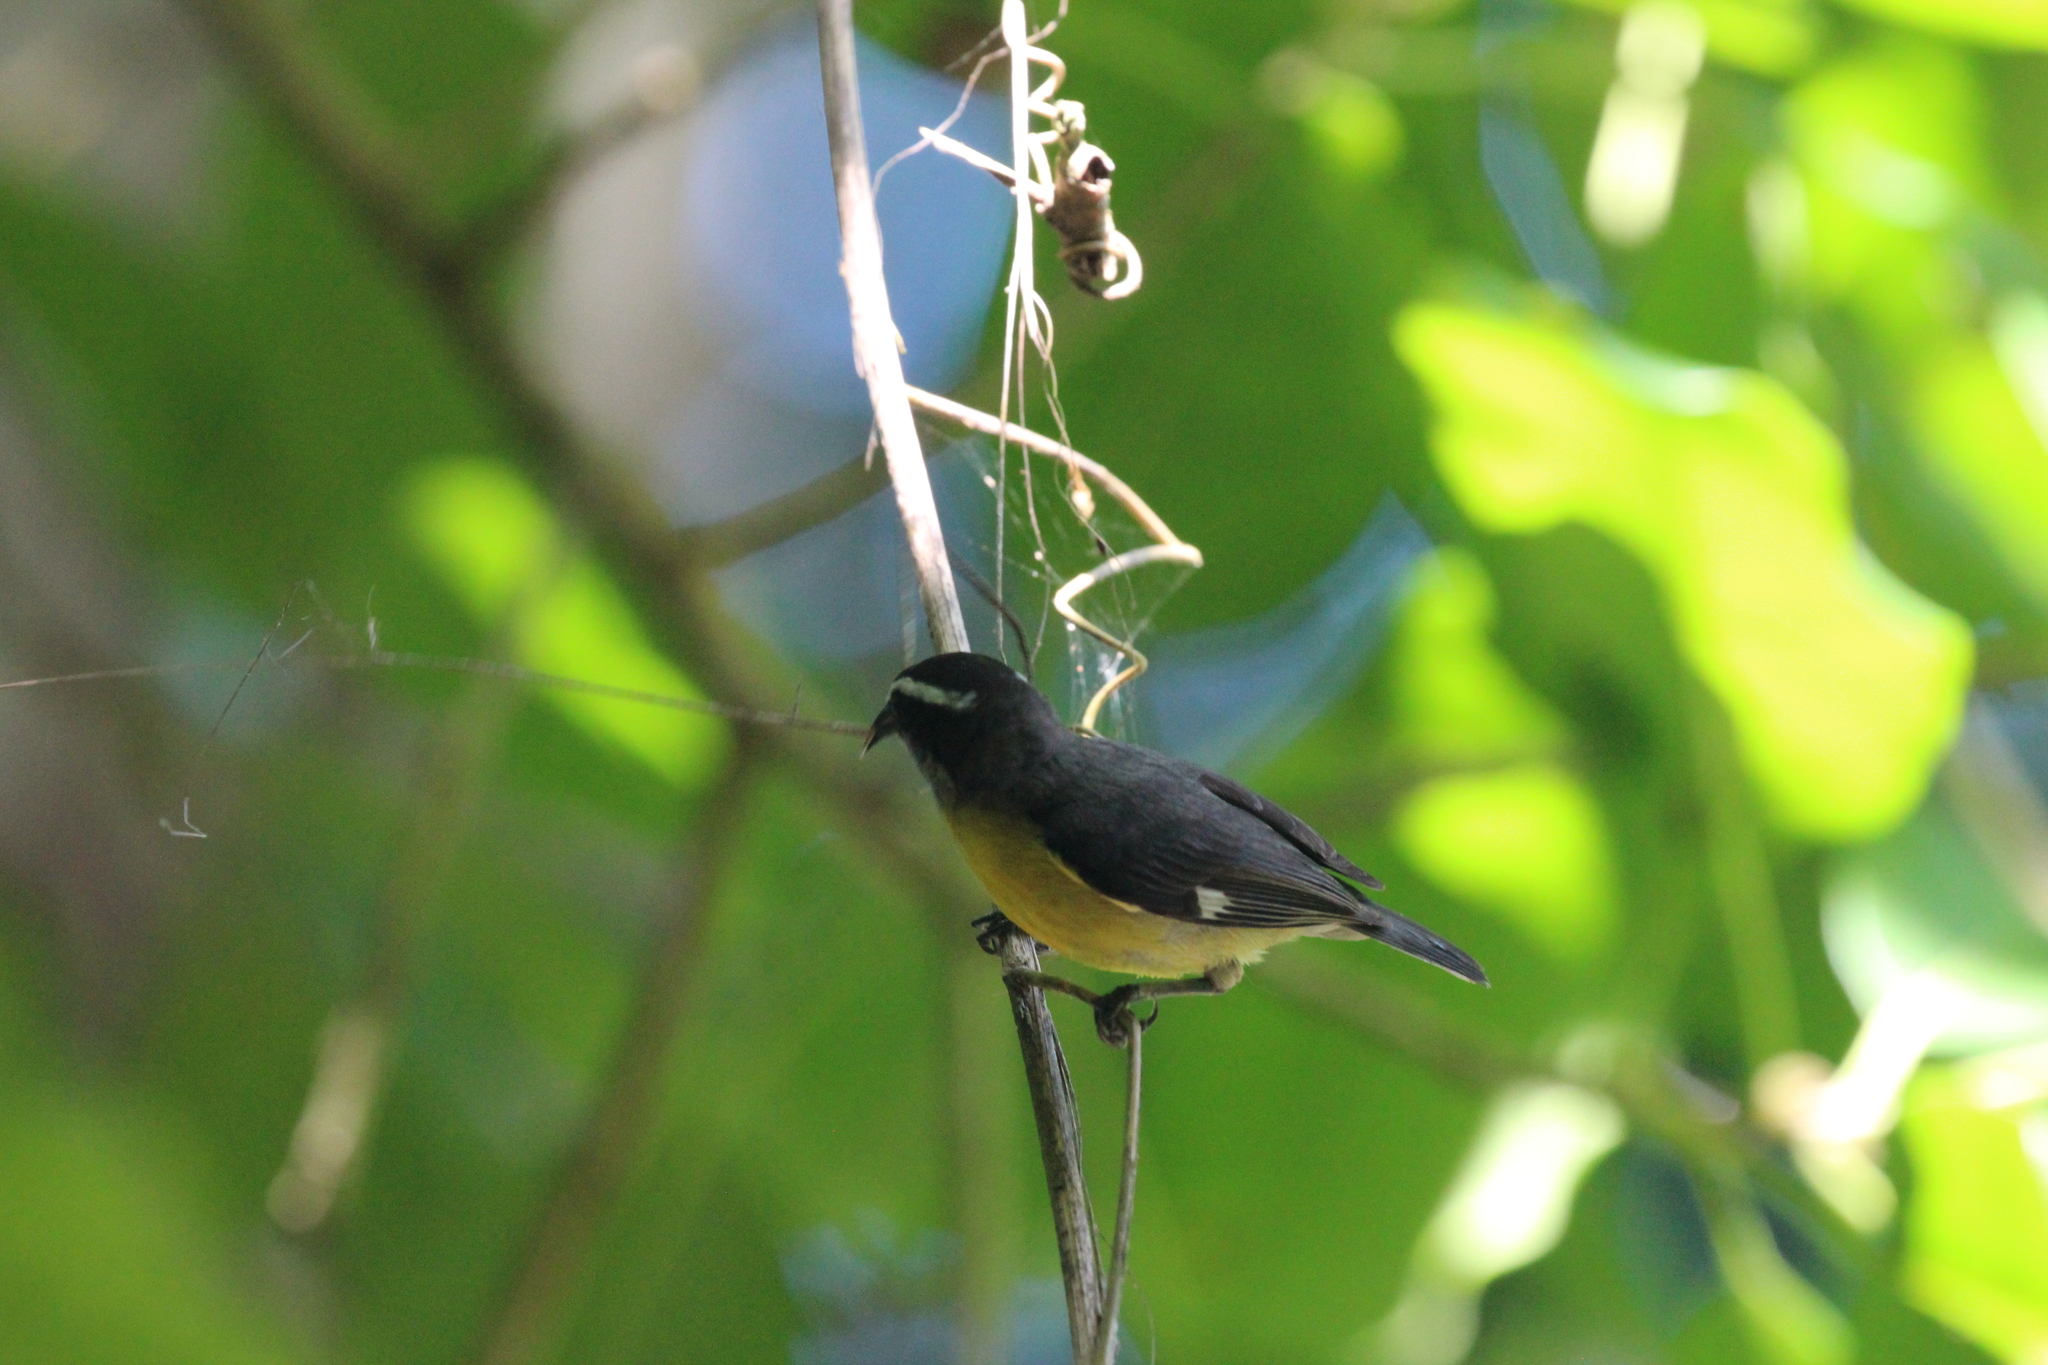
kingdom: Animalia
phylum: Chordata
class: Aves
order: Passeriformes
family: Thraupidae
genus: Coereba
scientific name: Coereba flaveola
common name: Bananaquit
